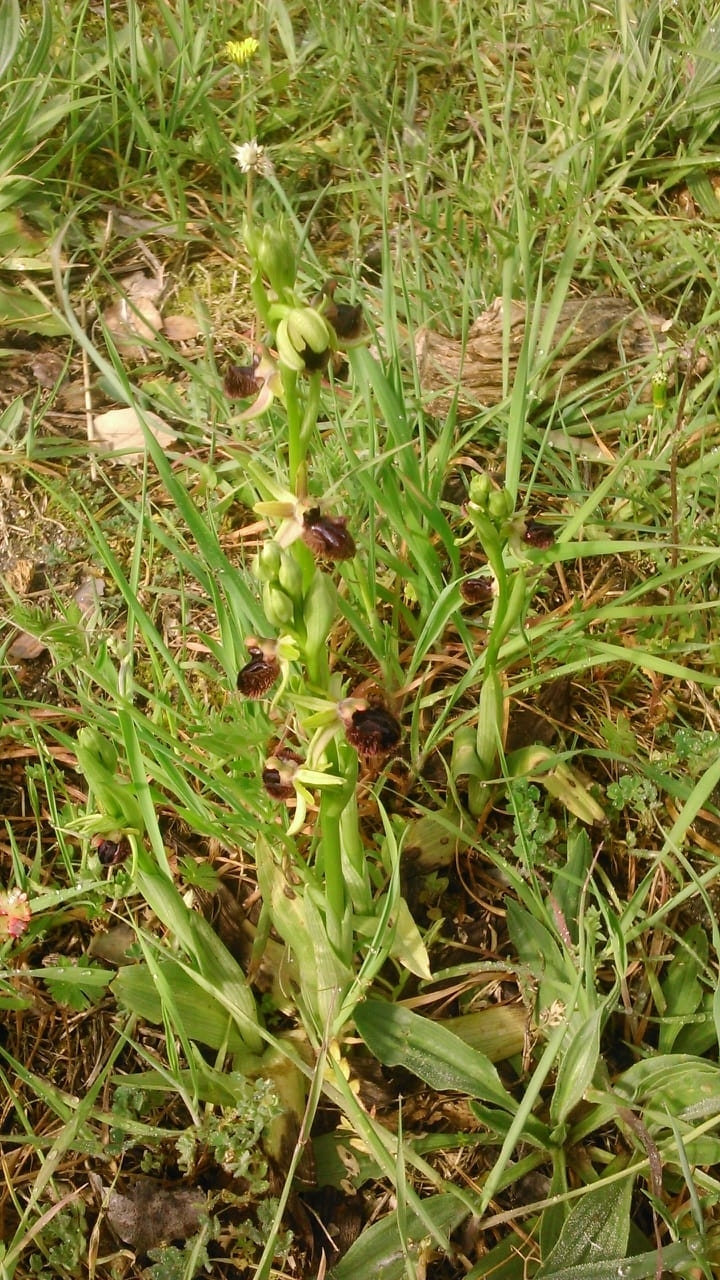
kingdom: Plantae
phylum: Tracheophyta
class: Liliopsida
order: Asparagales
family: Orchidaceae
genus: Ophrys
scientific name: Ophrys sphegodes
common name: Early spider-orchid
